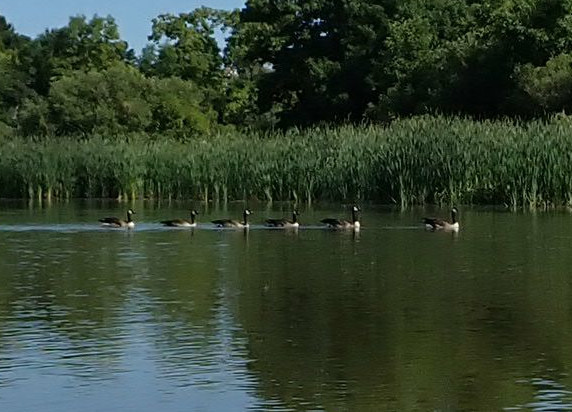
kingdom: Animalia
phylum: Chordata
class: Aves
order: Anseriformes
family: Anatidae
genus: Branta
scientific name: Branta canadensis
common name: Canada goose
